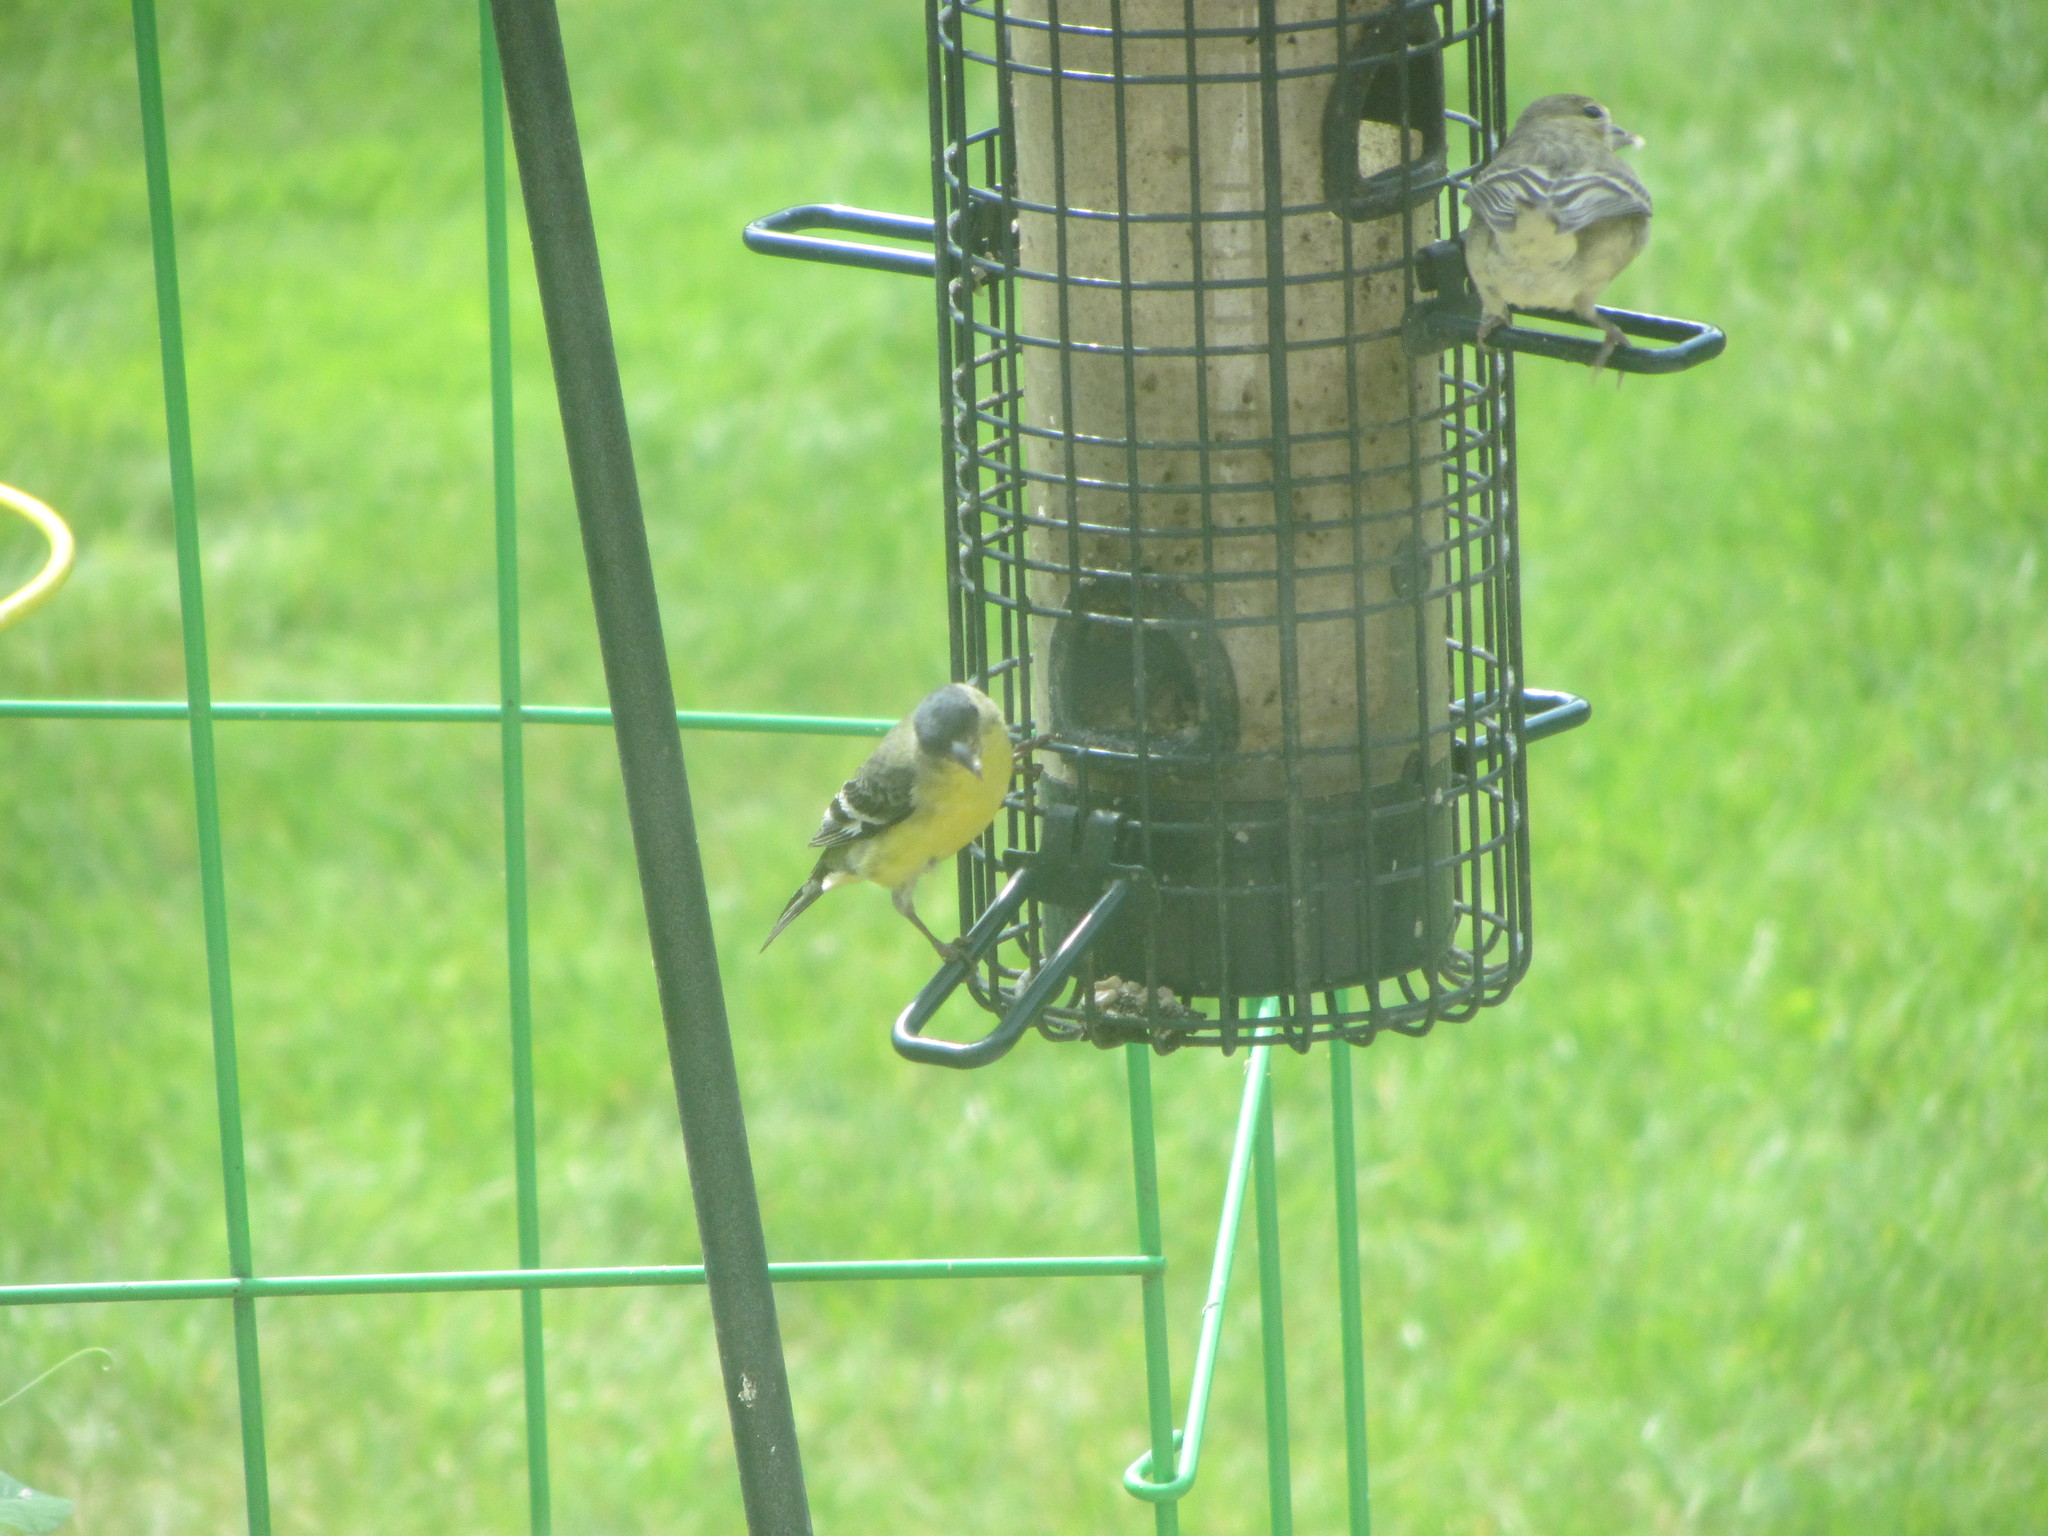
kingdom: Animalia
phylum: Chordata
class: Aves
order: Passeriformes
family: Fringillidae
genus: Spinus
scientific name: Spinus psaltria
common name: Lesser goldfinch
